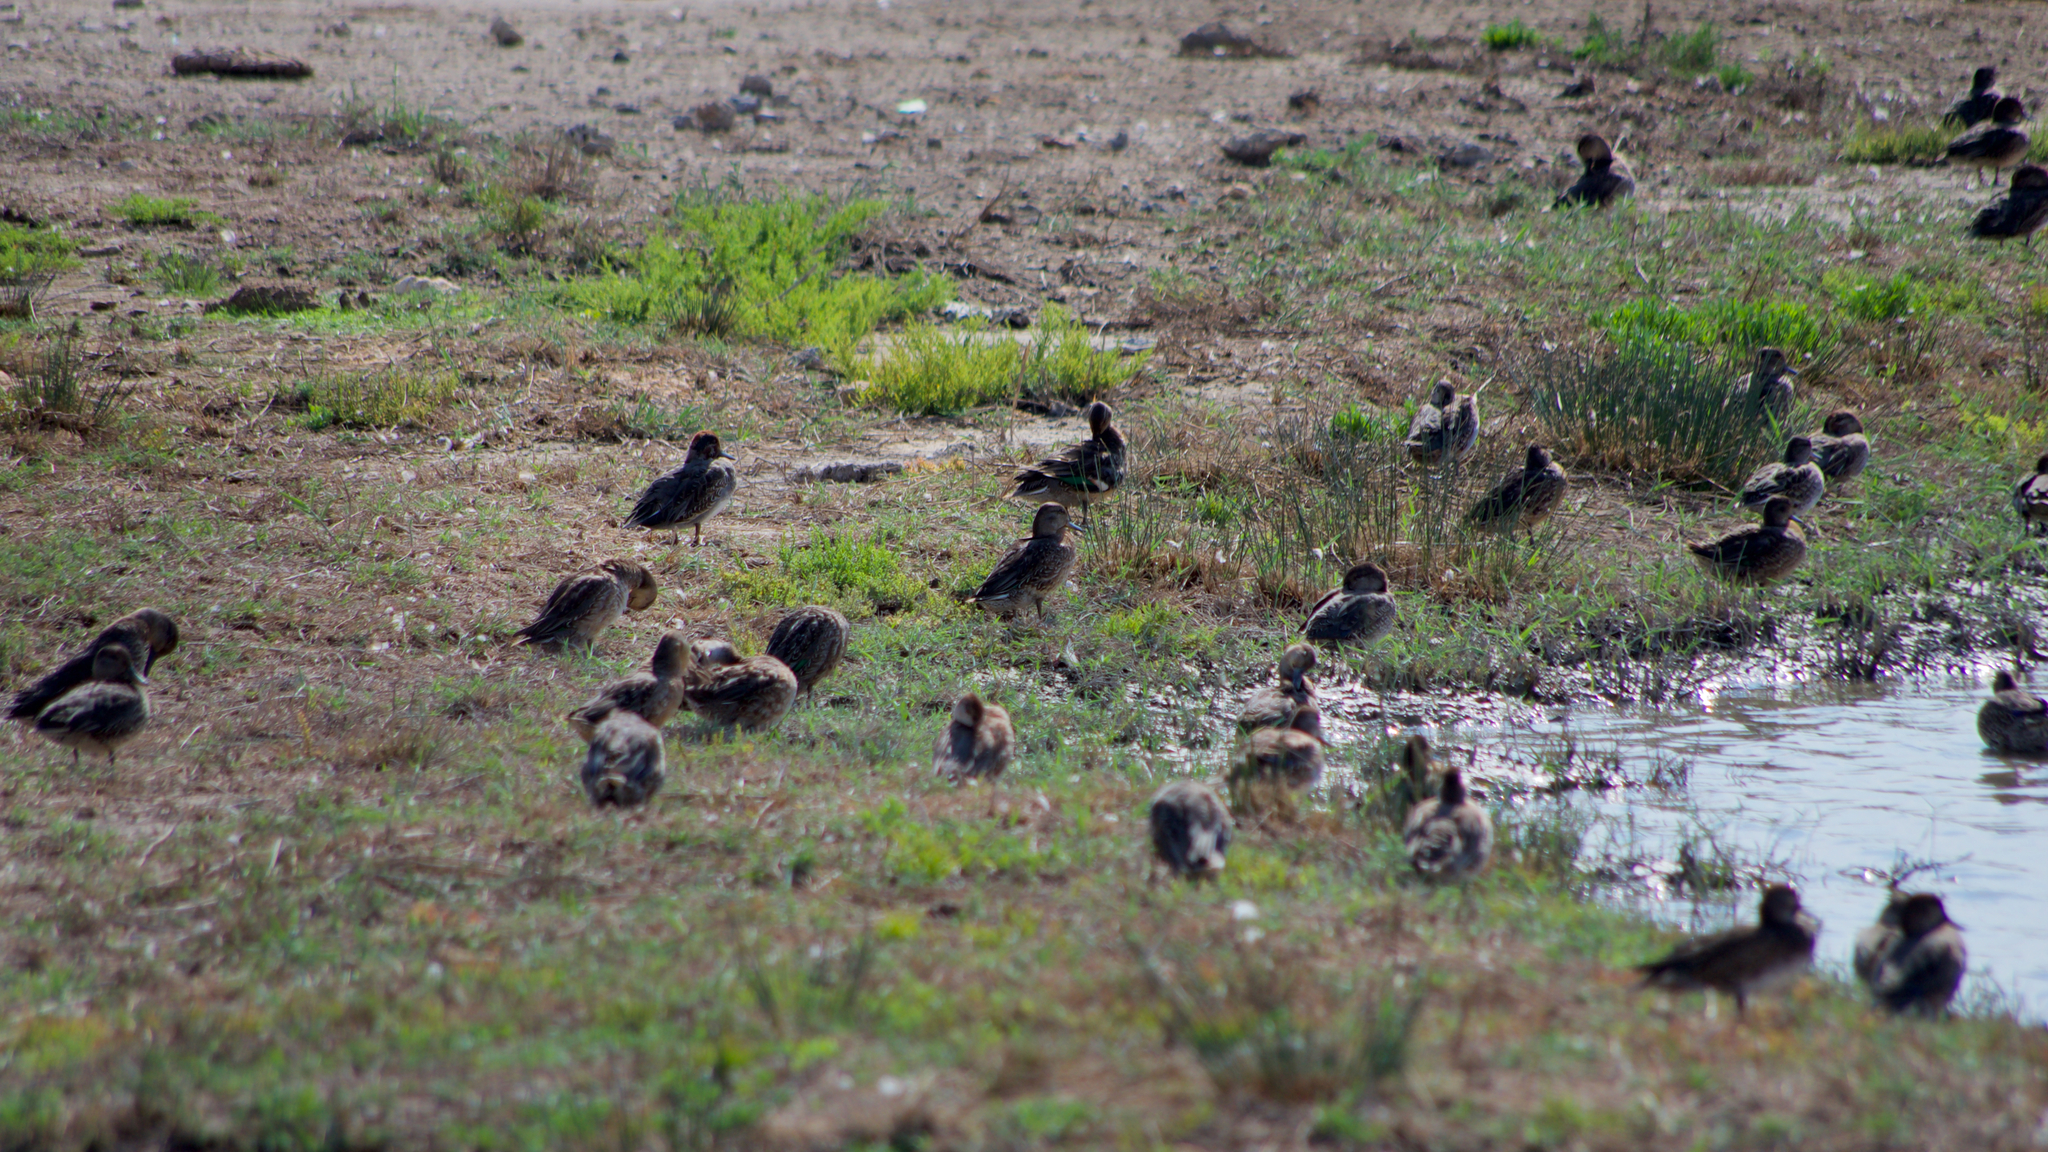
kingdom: Animalia
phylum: Chordata
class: Aves
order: Anseriformes
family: Anatidae
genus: Anas
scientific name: Anas crecca
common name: Eurasian teal
